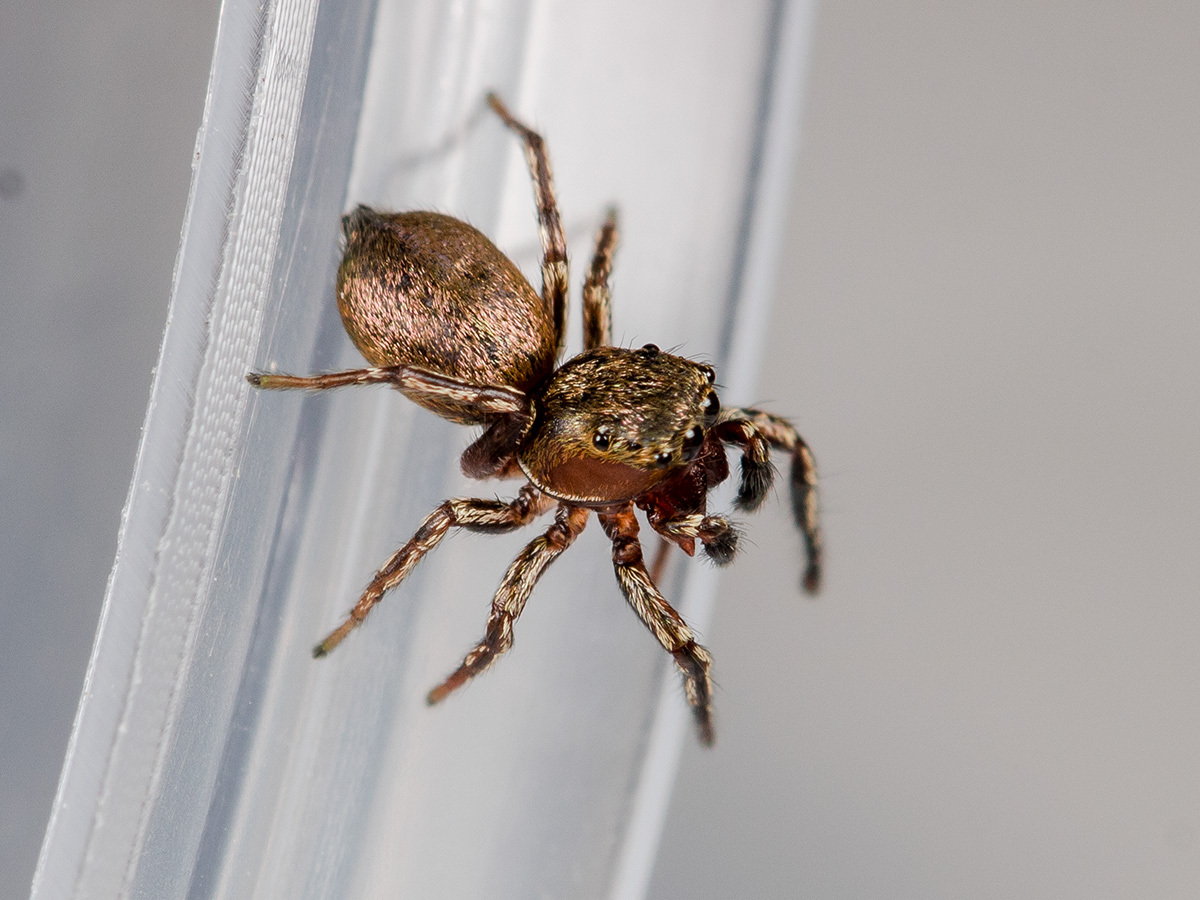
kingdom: Animalia
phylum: Arthropoda
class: Arachnida
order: Araneae
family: Salticidae
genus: Heliophanus
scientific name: Heliophanus patagiatus
